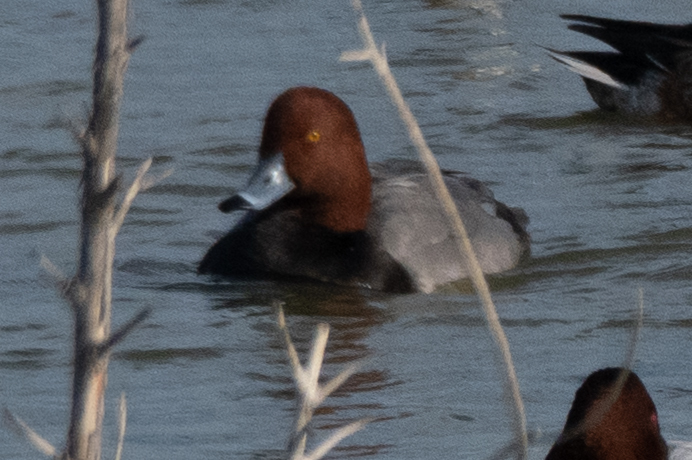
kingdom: Animalia
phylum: Chordata
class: Aves
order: Anseriformes
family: Anatidae
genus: Aythya
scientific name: Aythya americana
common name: Redhead
